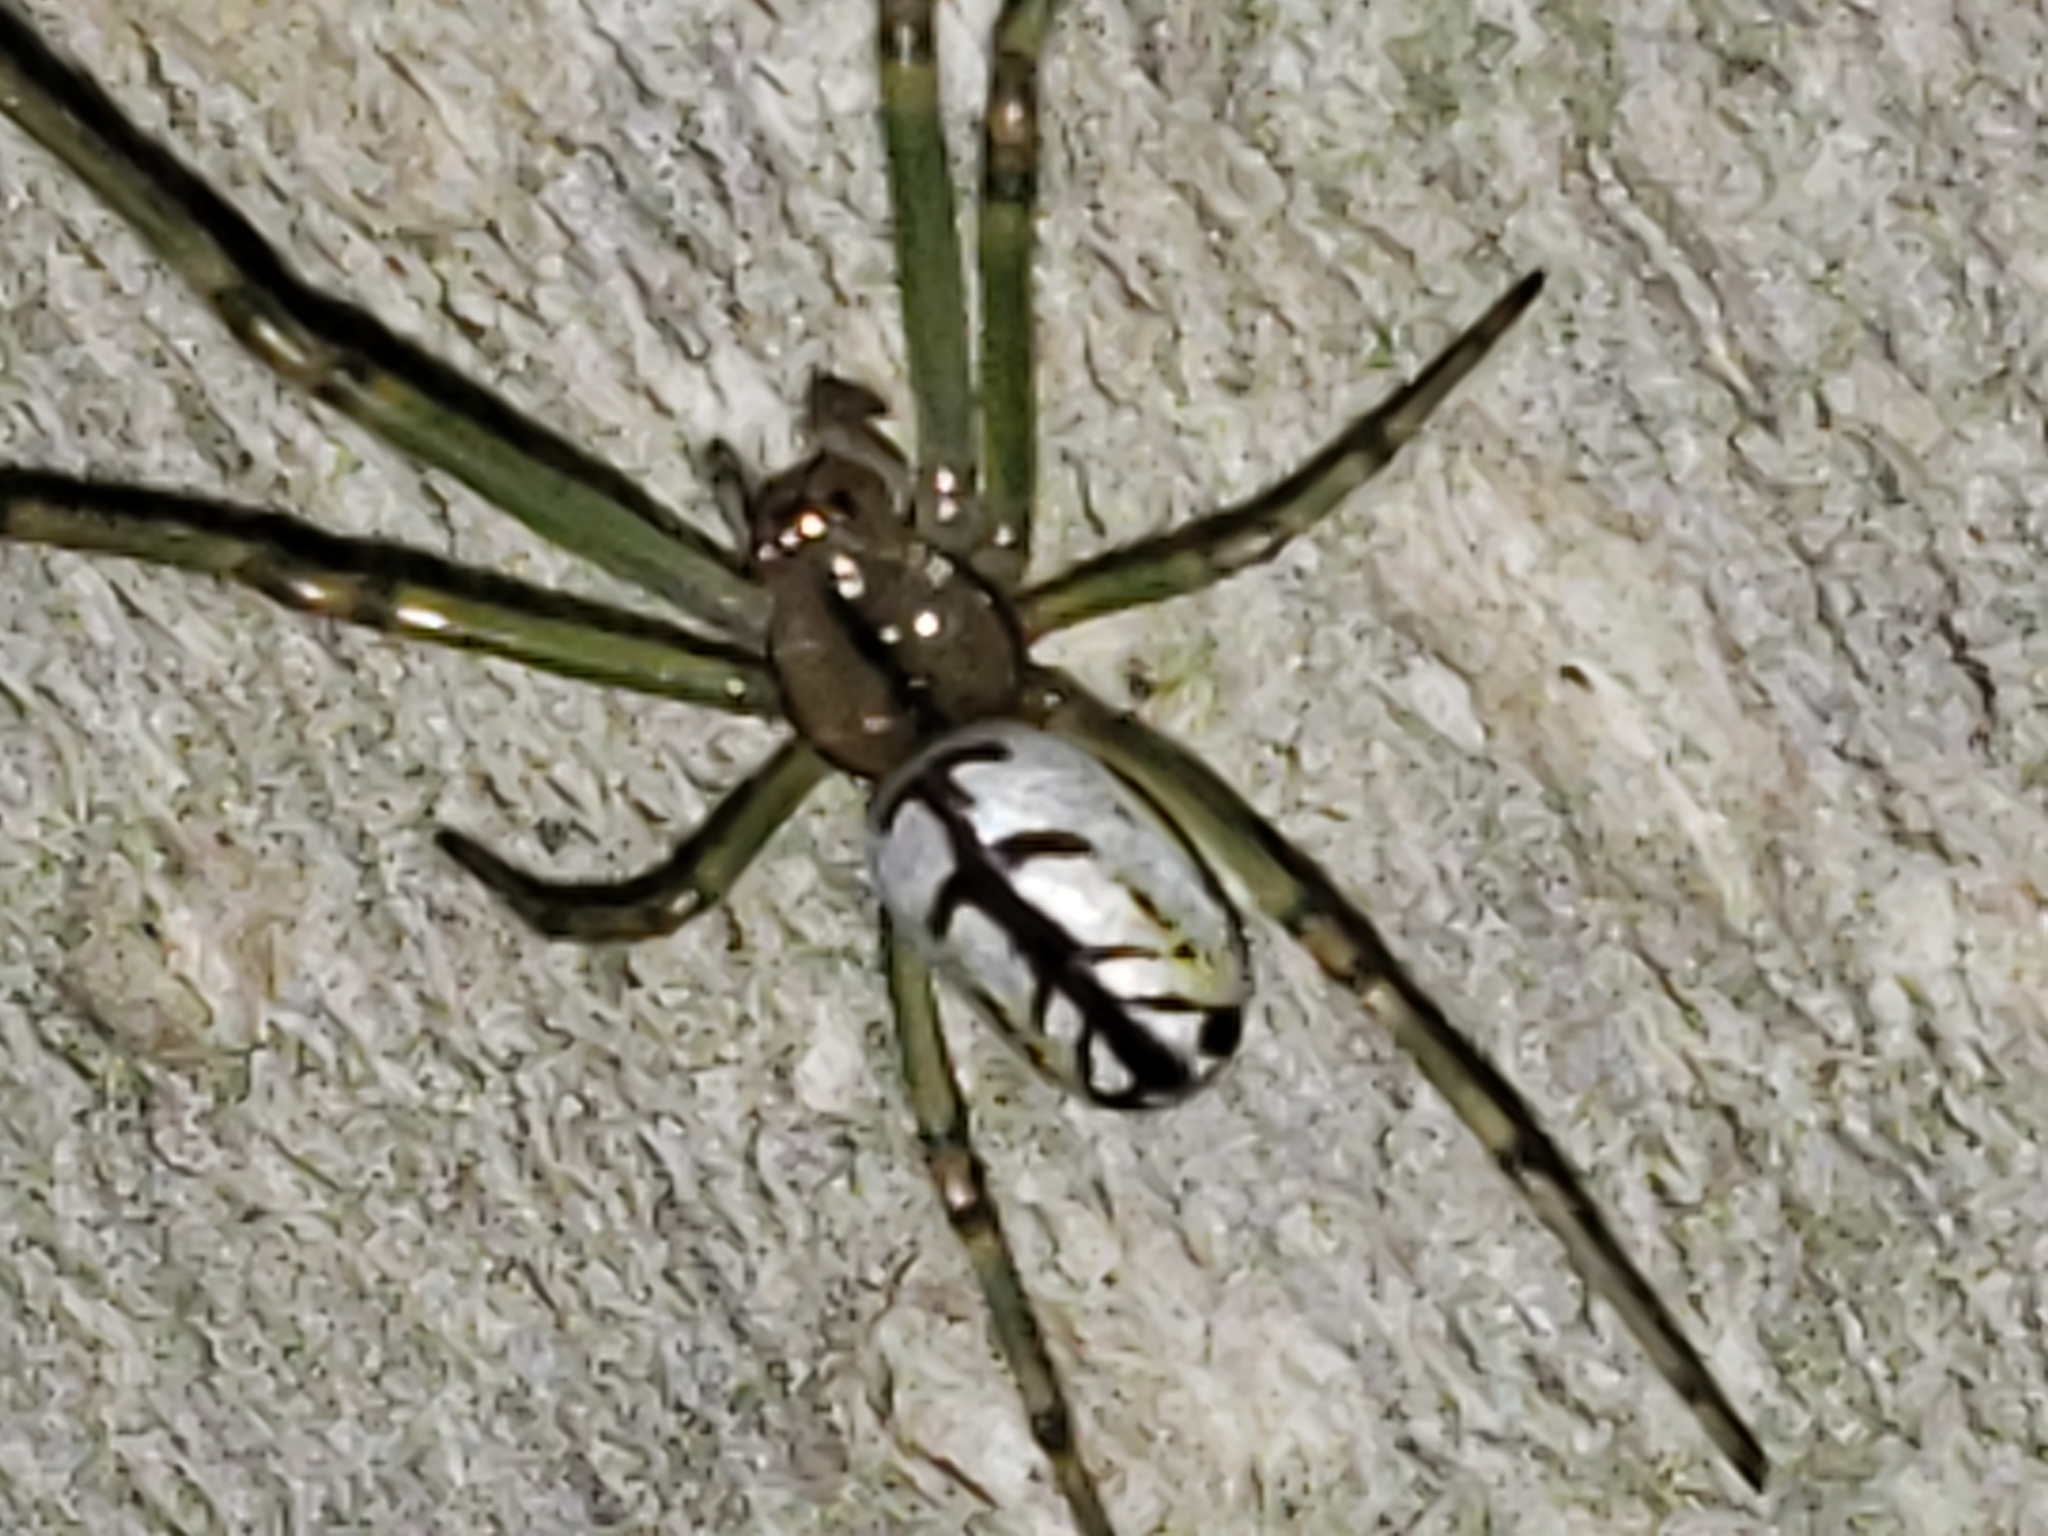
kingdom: Animalia
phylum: Arthropoda
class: Arachnida
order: Araneae
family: Tetragnathidae
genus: Leucauge
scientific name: Leucauge venusta
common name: Longjawed orb weavers
